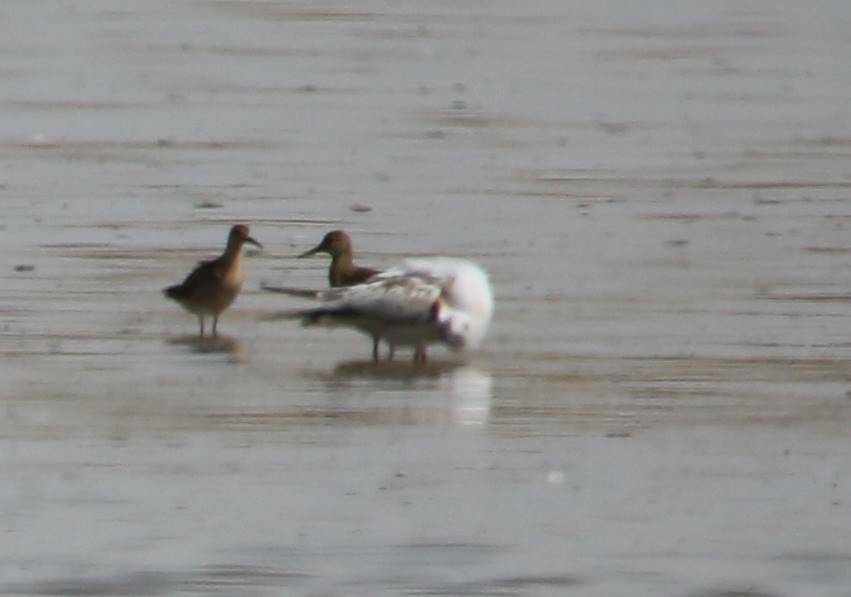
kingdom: Animalia
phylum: Chordata
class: Aves
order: Charadriiformes
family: Scolopacidae
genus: Calidris
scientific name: Calidris pugnax
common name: Ruff
